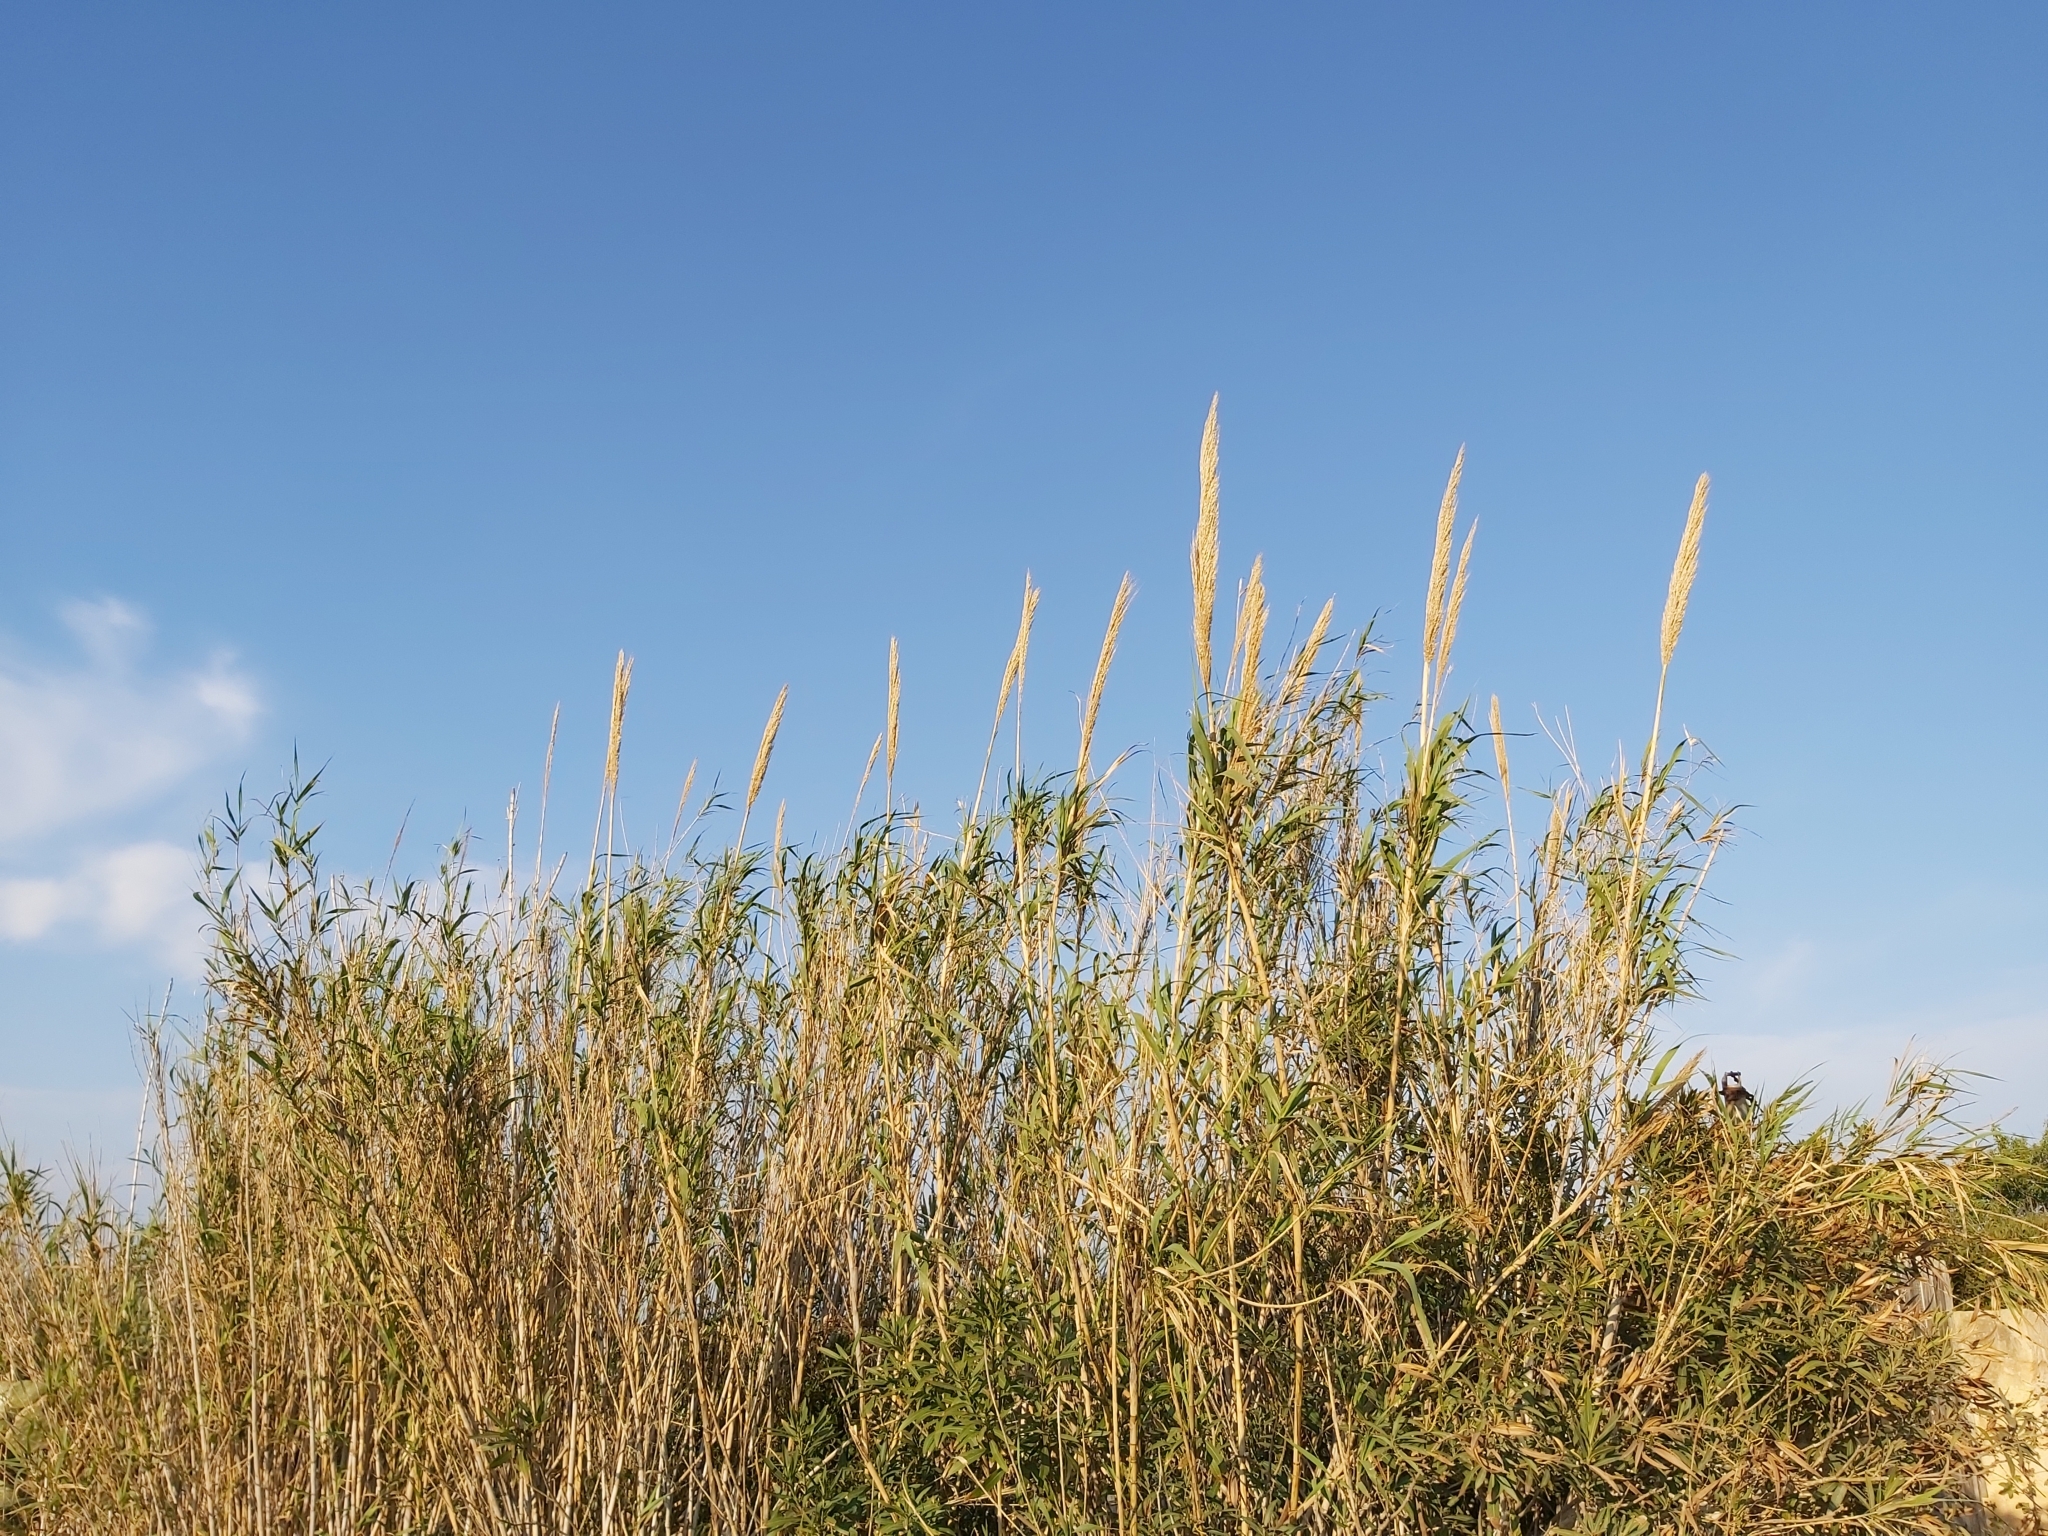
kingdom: Plantae
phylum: Tracheophyta
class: Liliopsida
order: Poales
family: Poaceae
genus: Arundo
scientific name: Arundo donax
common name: Giant reed
